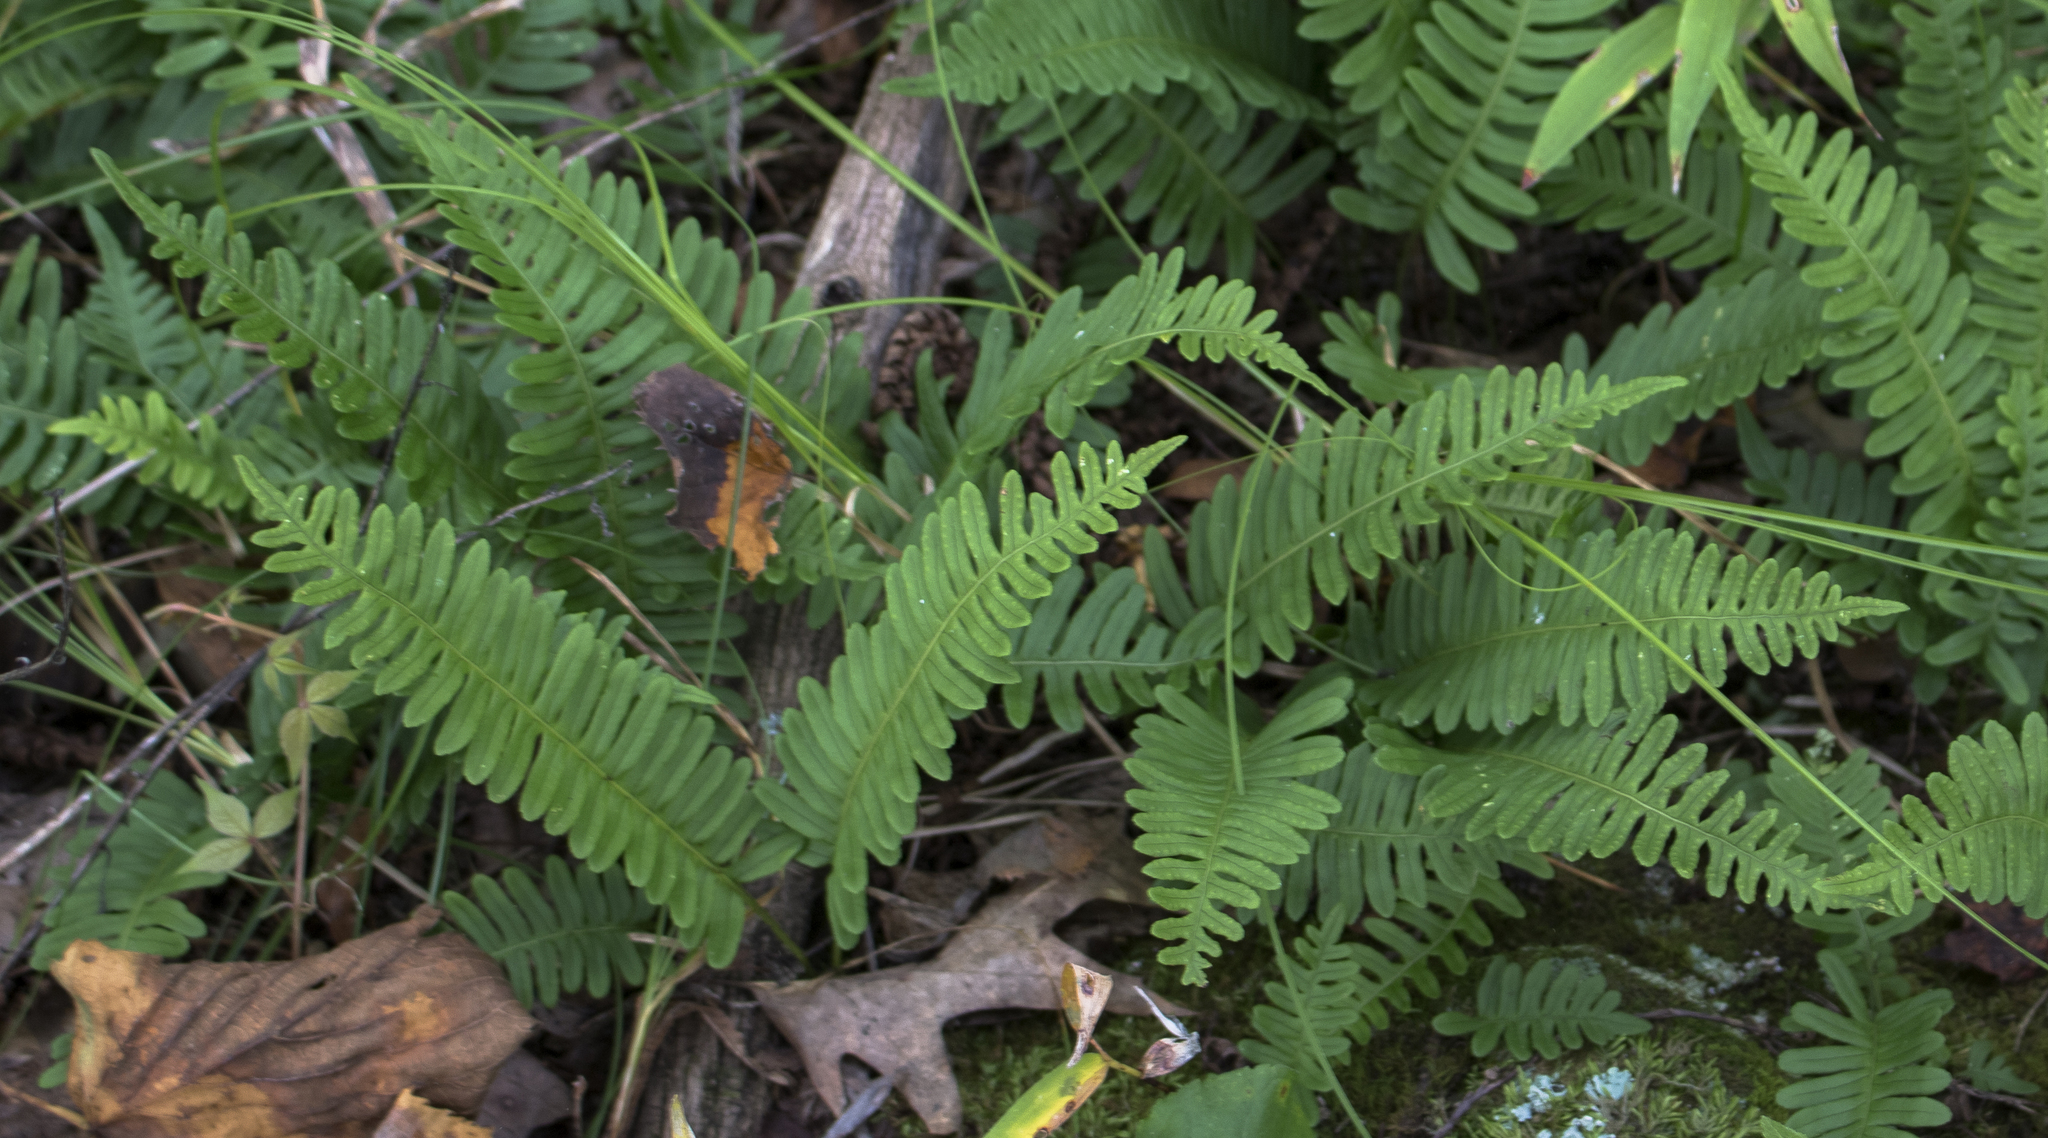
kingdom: Plantae
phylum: Tracheophyta
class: Polypodiopsida
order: Polypodiales
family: Polypodiaceae
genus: Polypodium
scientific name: Polypodium virginianum
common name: American wall fern
